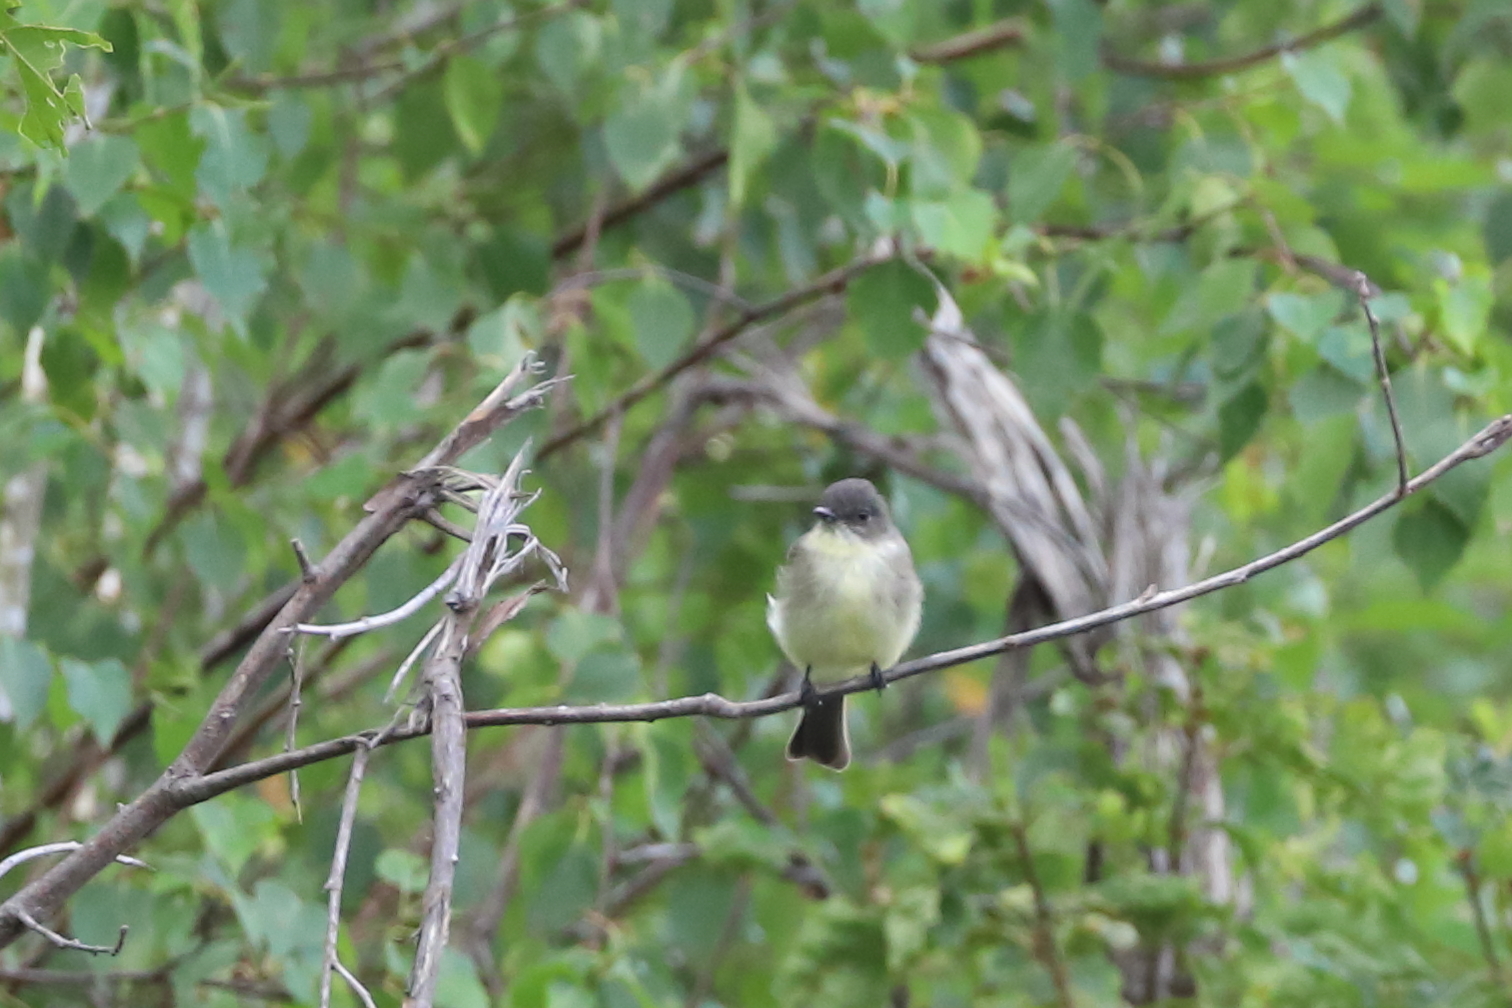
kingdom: Animalia
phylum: Chordata
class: Aves
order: Passeriformes
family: Tyrannidae
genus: Sayornis
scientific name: Sayornis phoebe
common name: Eastern phoebe
